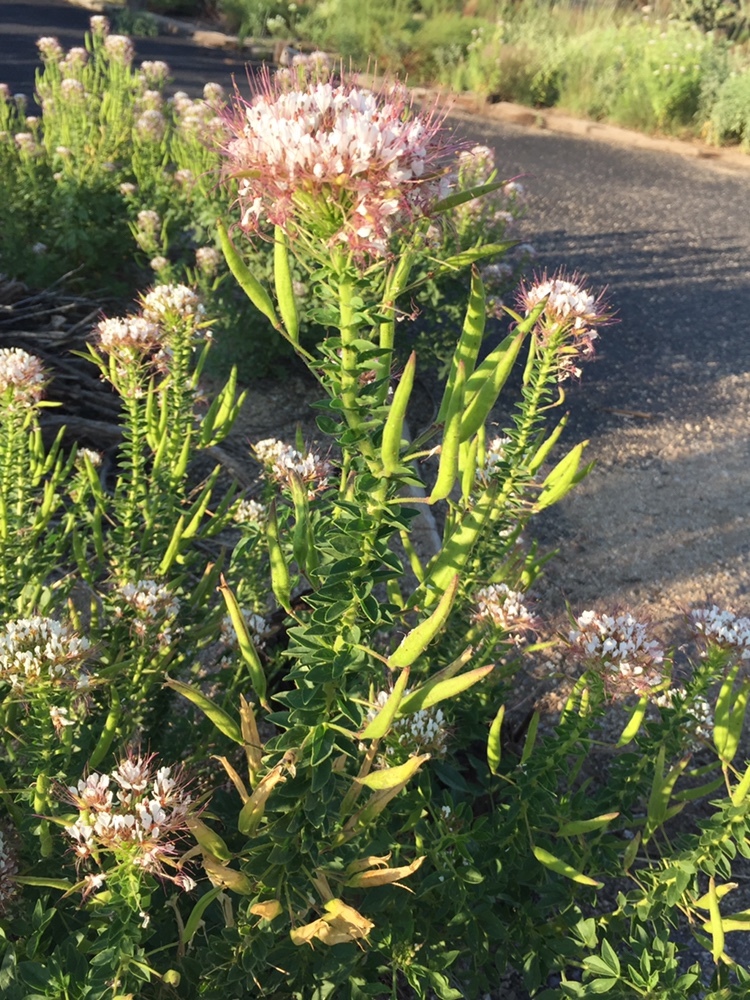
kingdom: Plantae
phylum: Tracheophyta
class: Magnoliopsida
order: Brassicales
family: Cleomaceae
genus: Polanisia
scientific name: Polanisia dodecandra
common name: Clammyweed
